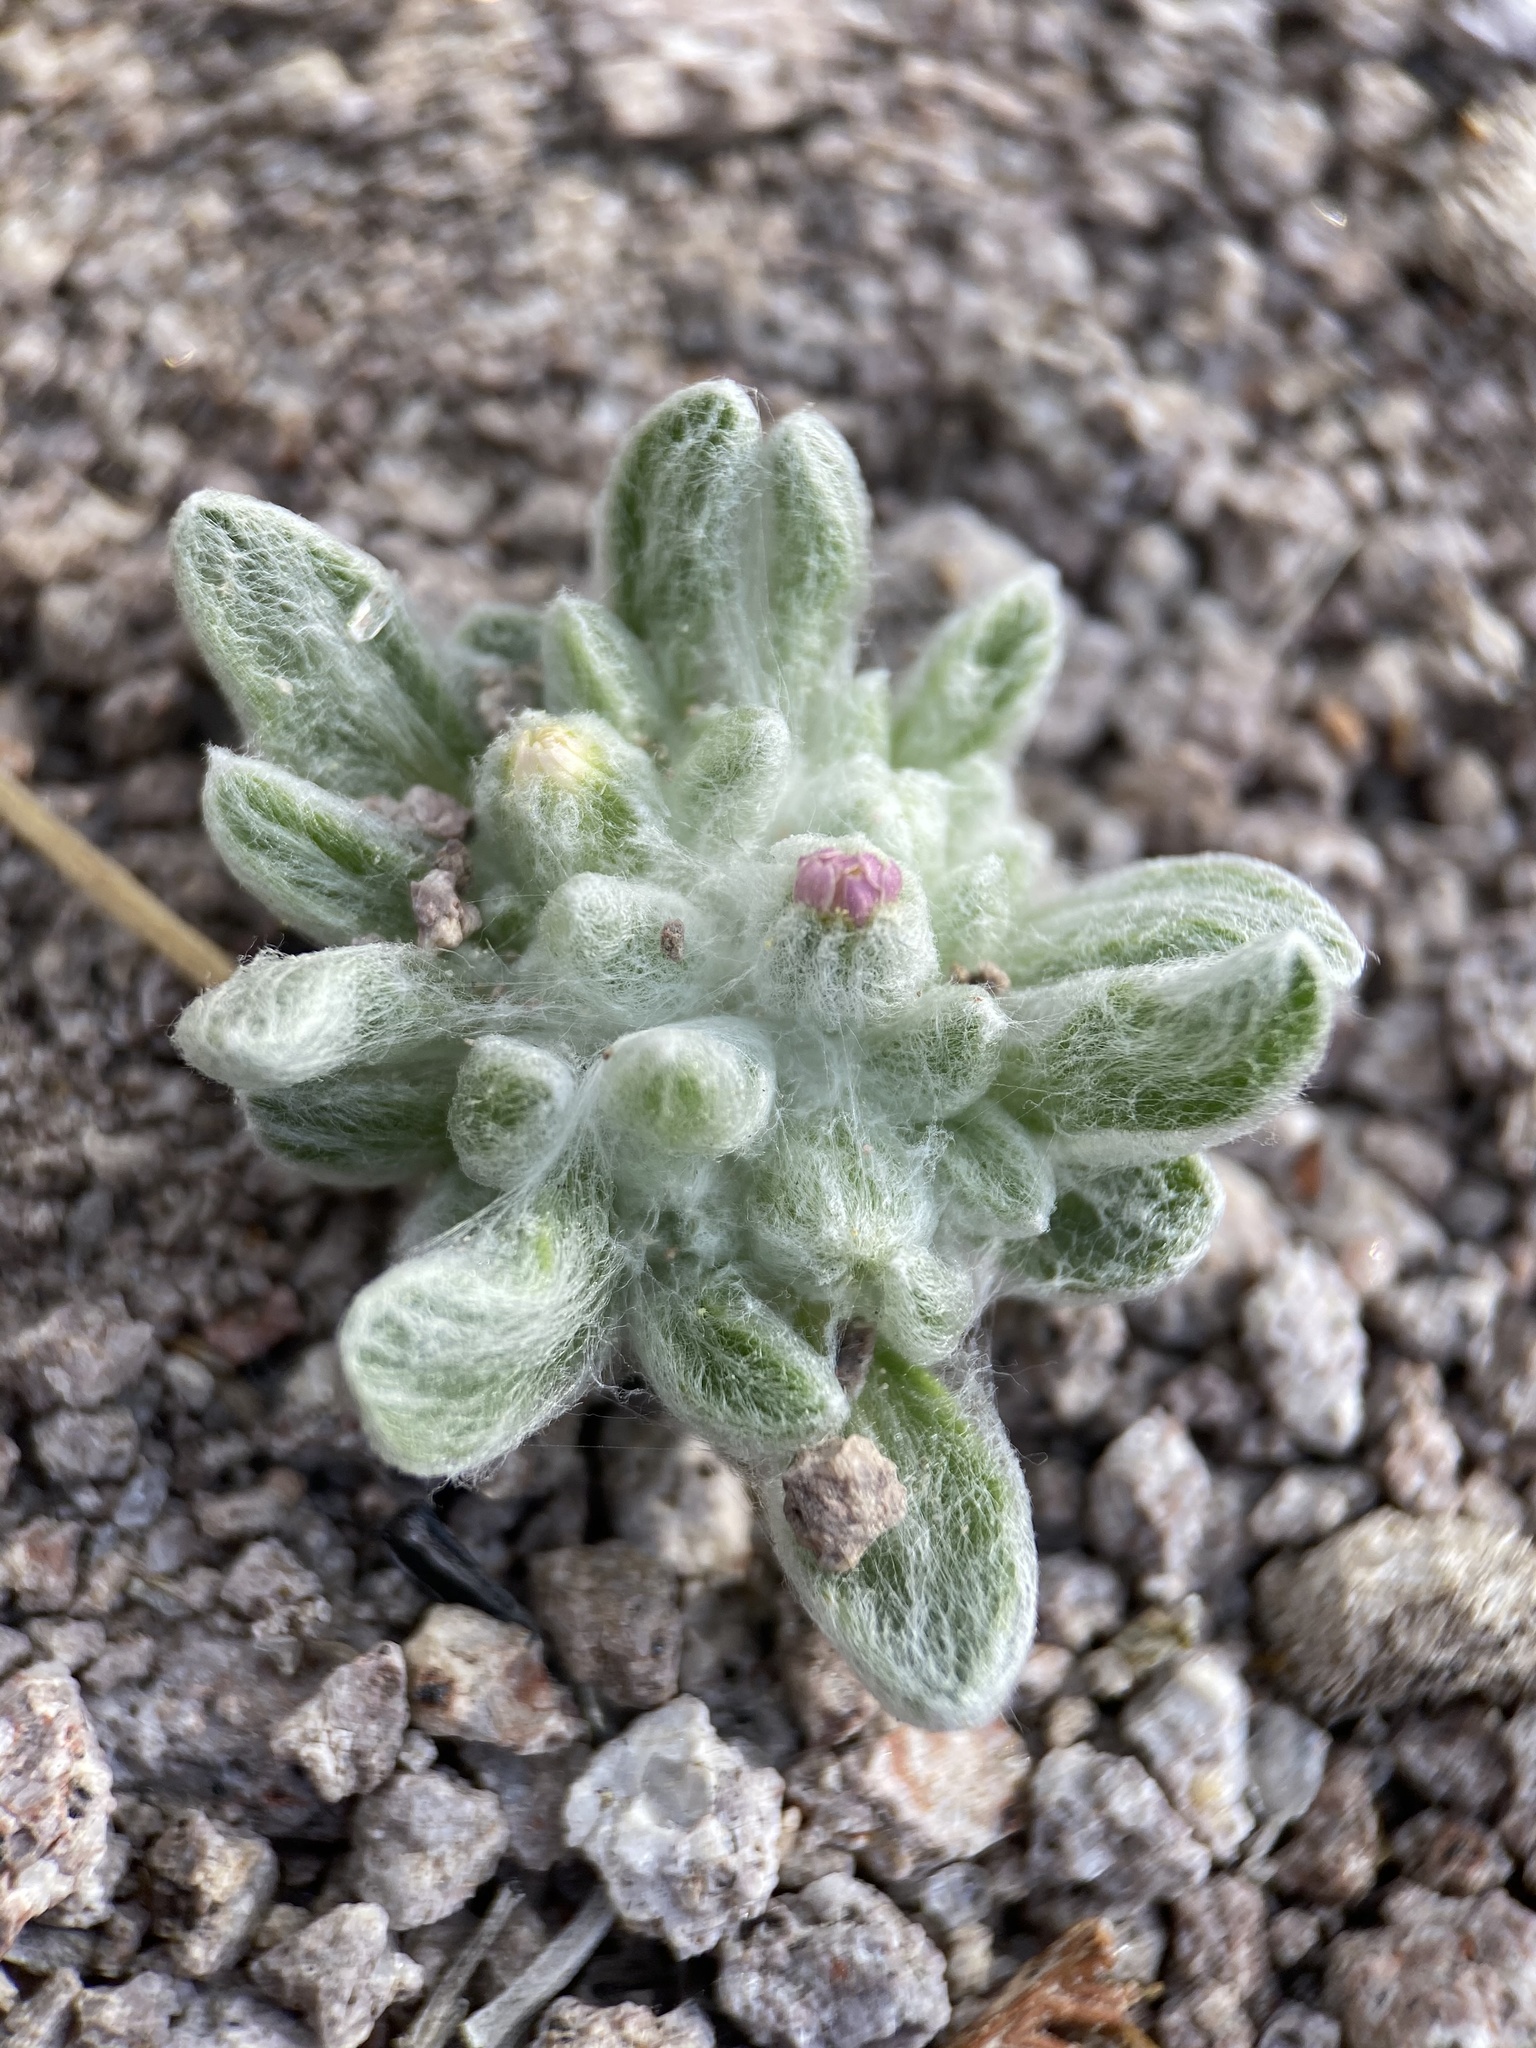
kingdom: Plantae
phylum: Tracheophyta
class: Magnoliopsida
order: Asterales
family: Asteraceae
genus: Eatonella
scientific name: Eatonella nivea
